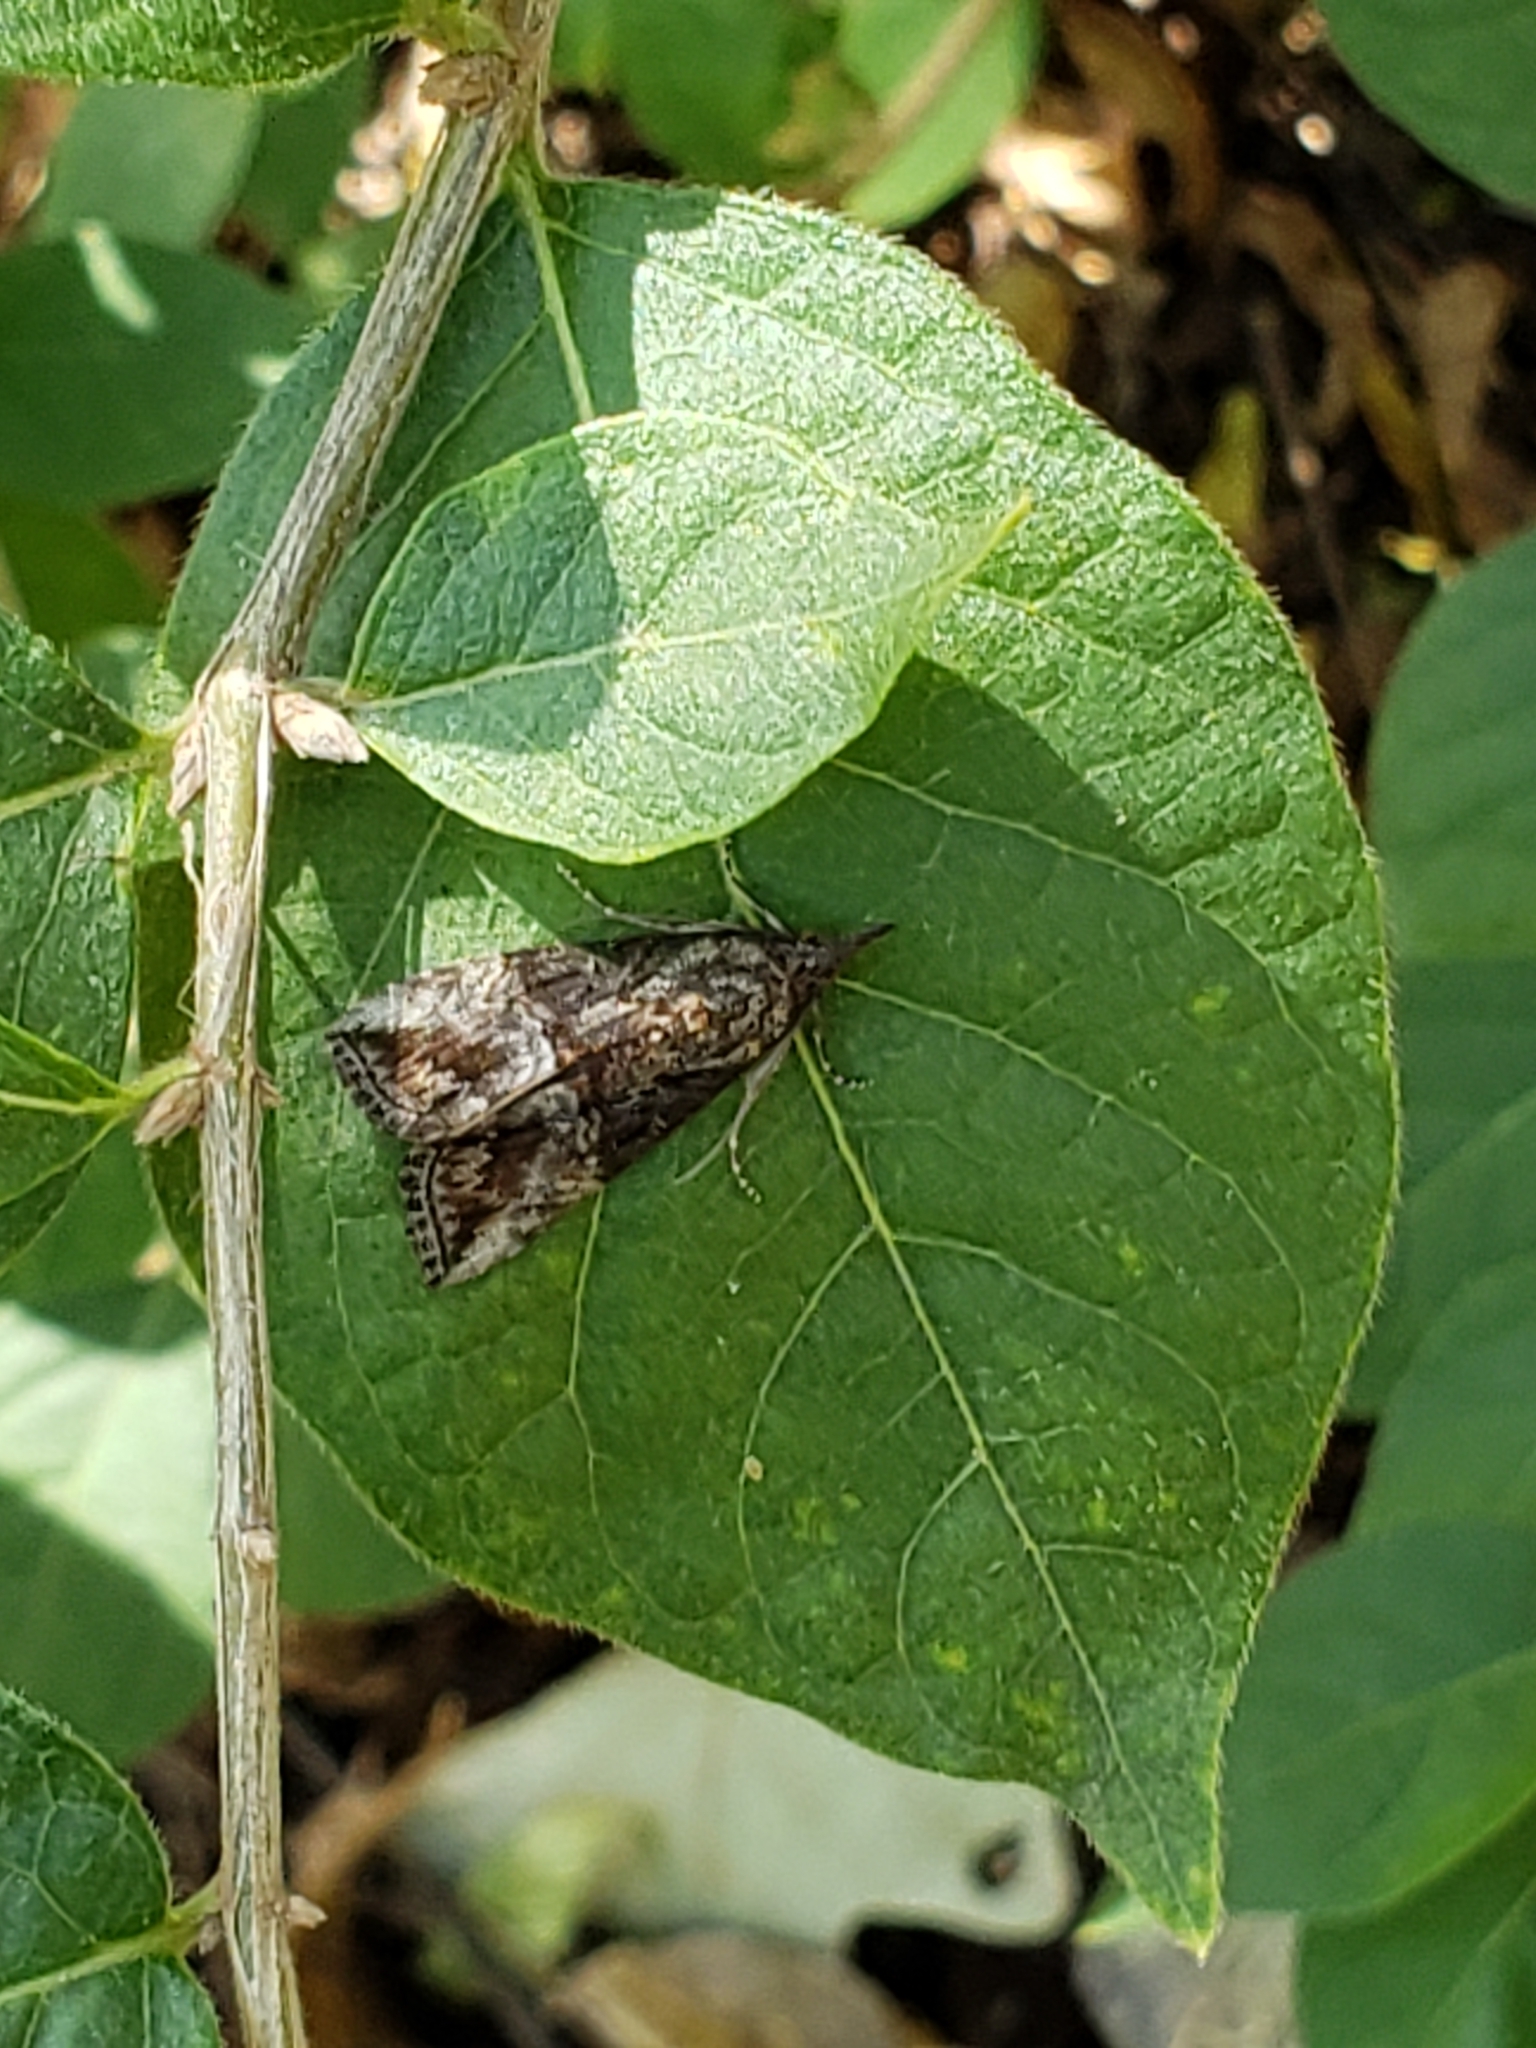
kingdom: Animalia
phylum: Arthropoda
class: Insecta
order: Lepidoptera
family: Erebidae
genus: Hypena
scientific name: Hypena scabra
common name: Green cloverworm
